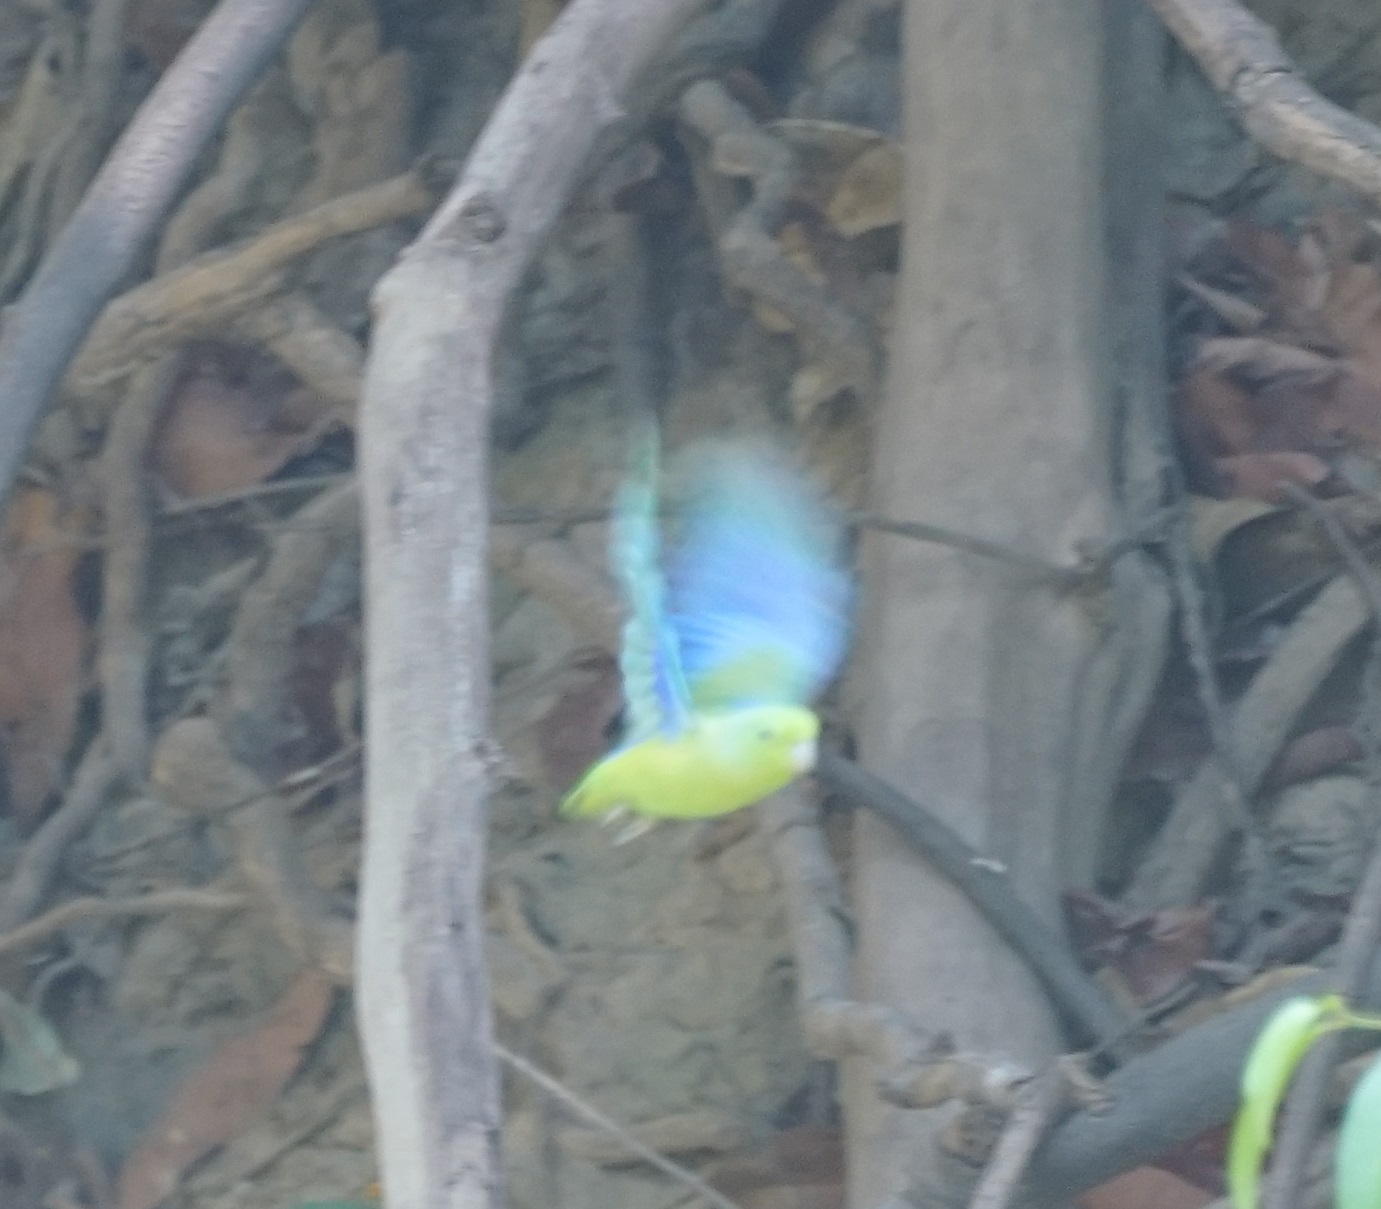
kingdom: Animalia
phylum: Chordata
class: Aves
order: Psittaciformes
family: Psittacidae
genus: Forpus
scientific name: Forpus xanthopterygius
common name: Blue-winged parrotlet
